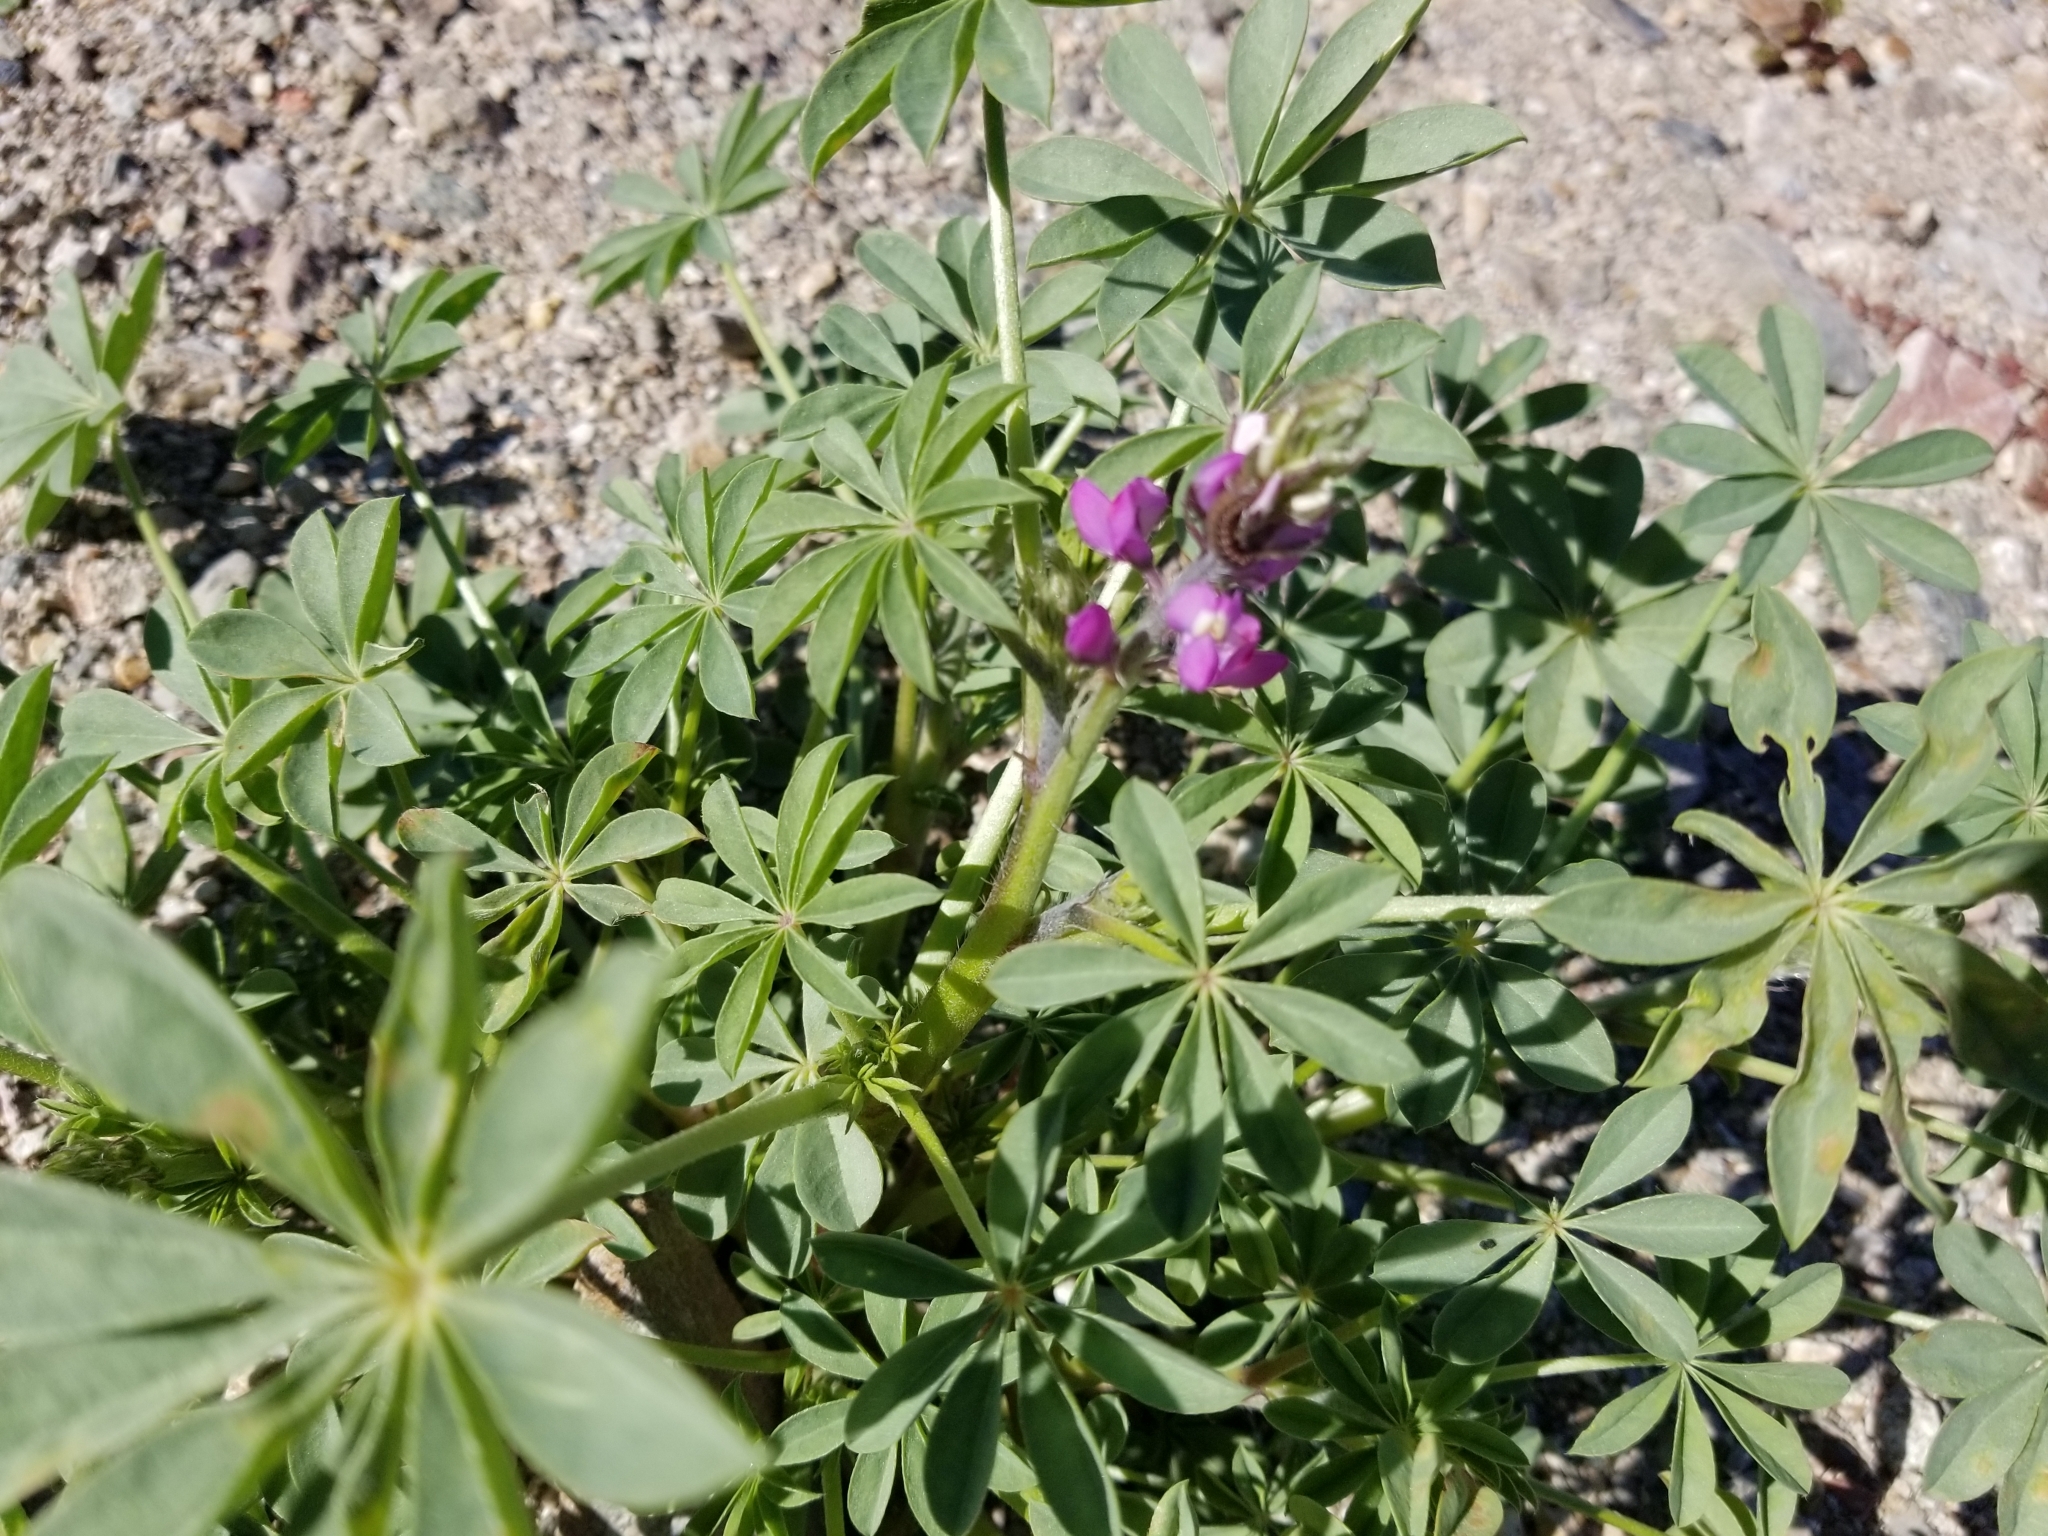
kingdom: Plantae
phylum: Tracheophyta
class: Magnoliopsida
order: Fabales
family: Fabaceae
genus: Lupinus
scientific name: Lupinus arizonicus
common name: Arizona lupine
